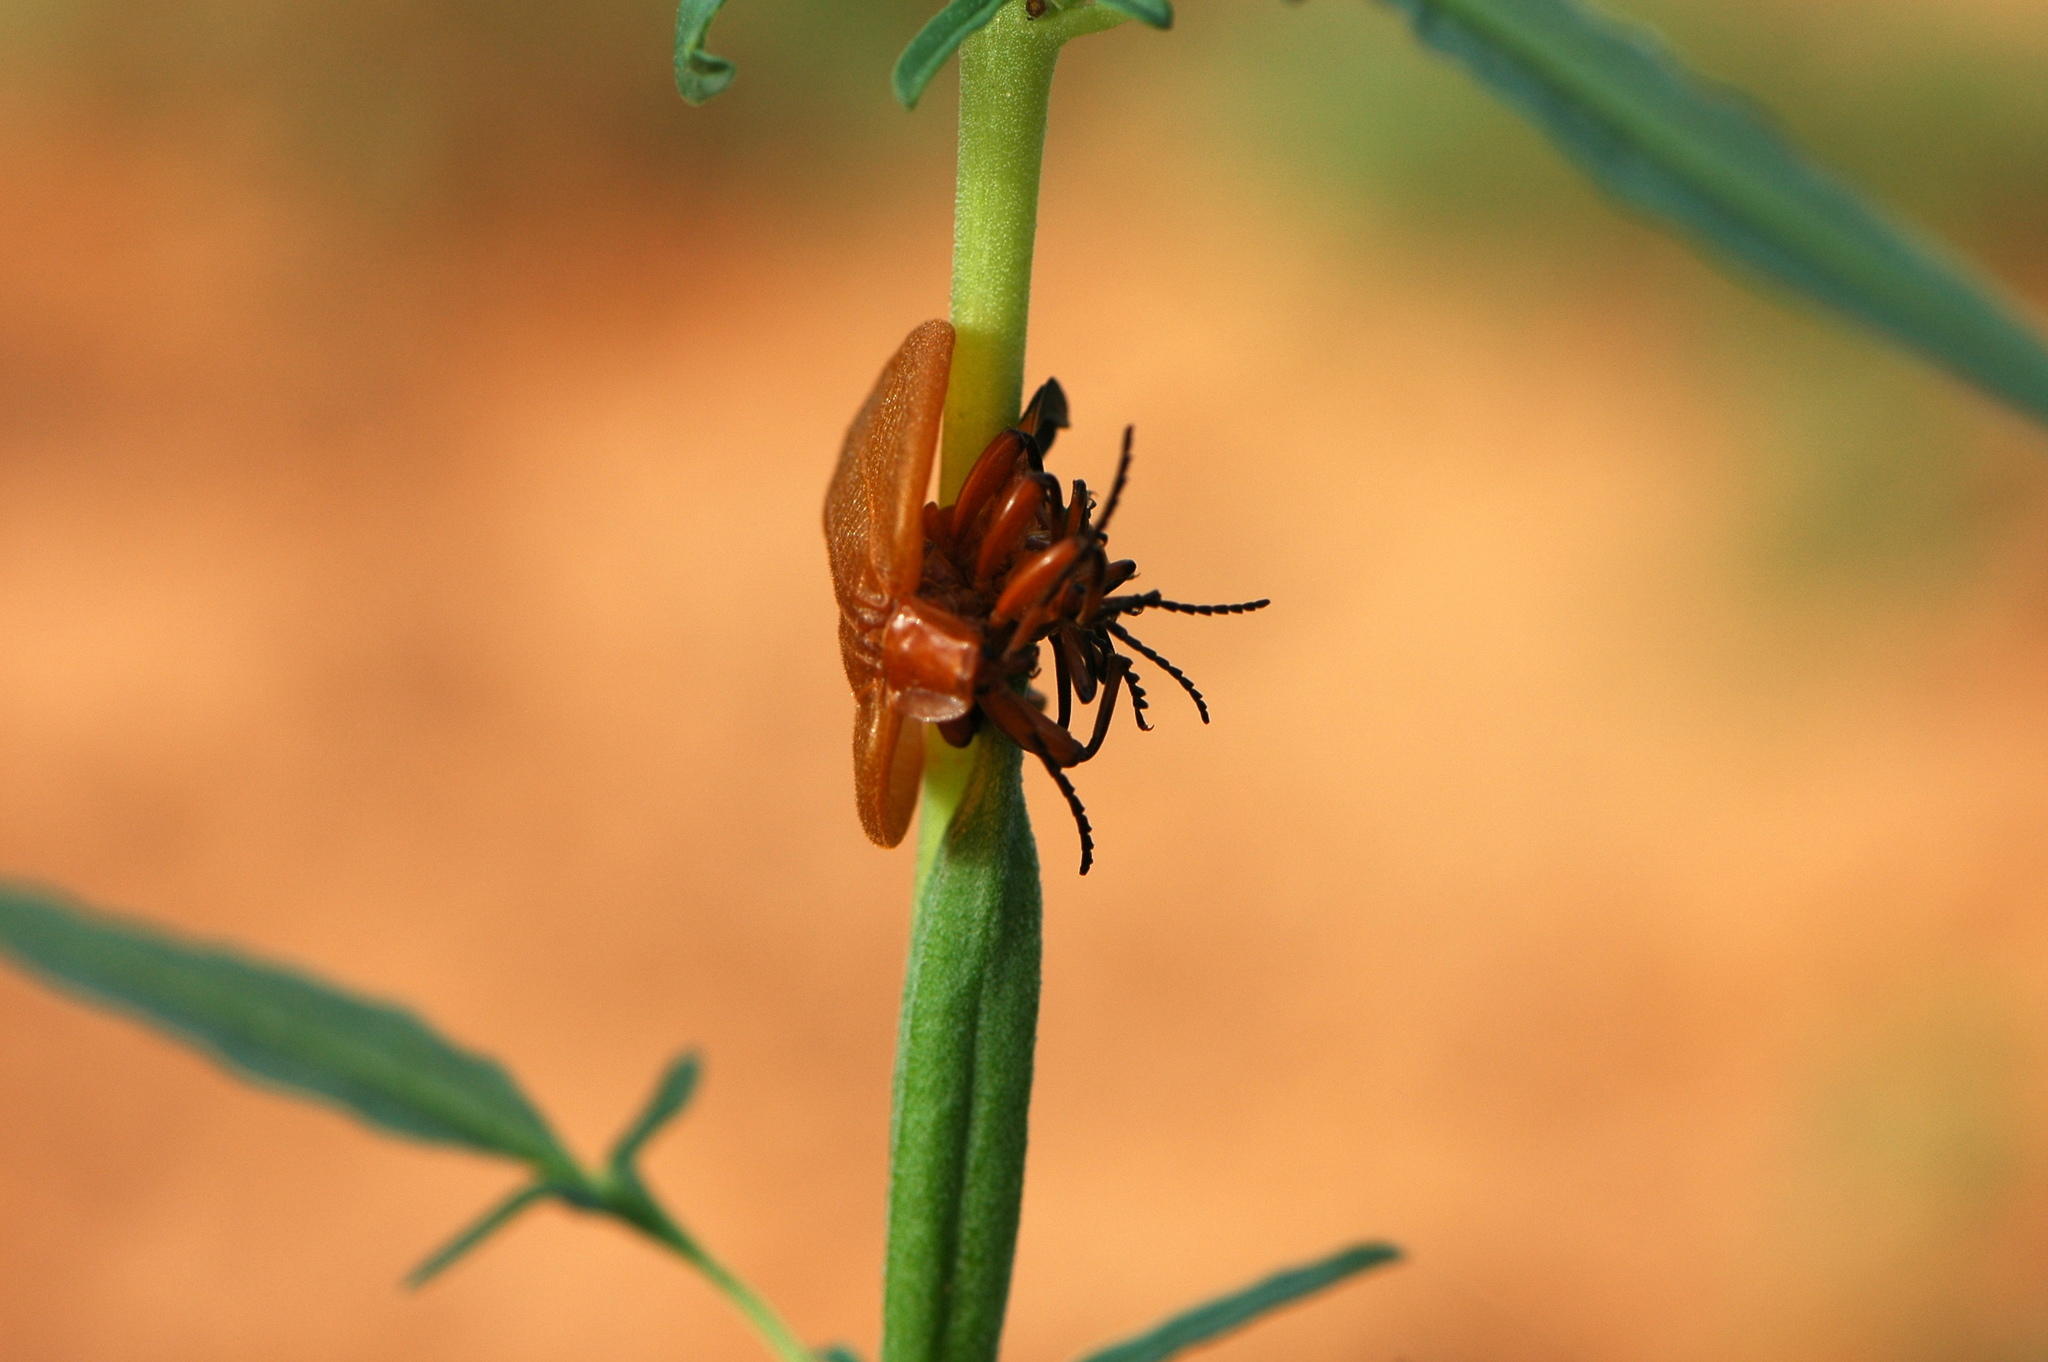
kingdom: Animalia
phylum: Arthropoda
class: Insecta
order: Coleoptera
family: Lycidae
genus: Lycus
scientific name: Lycus
